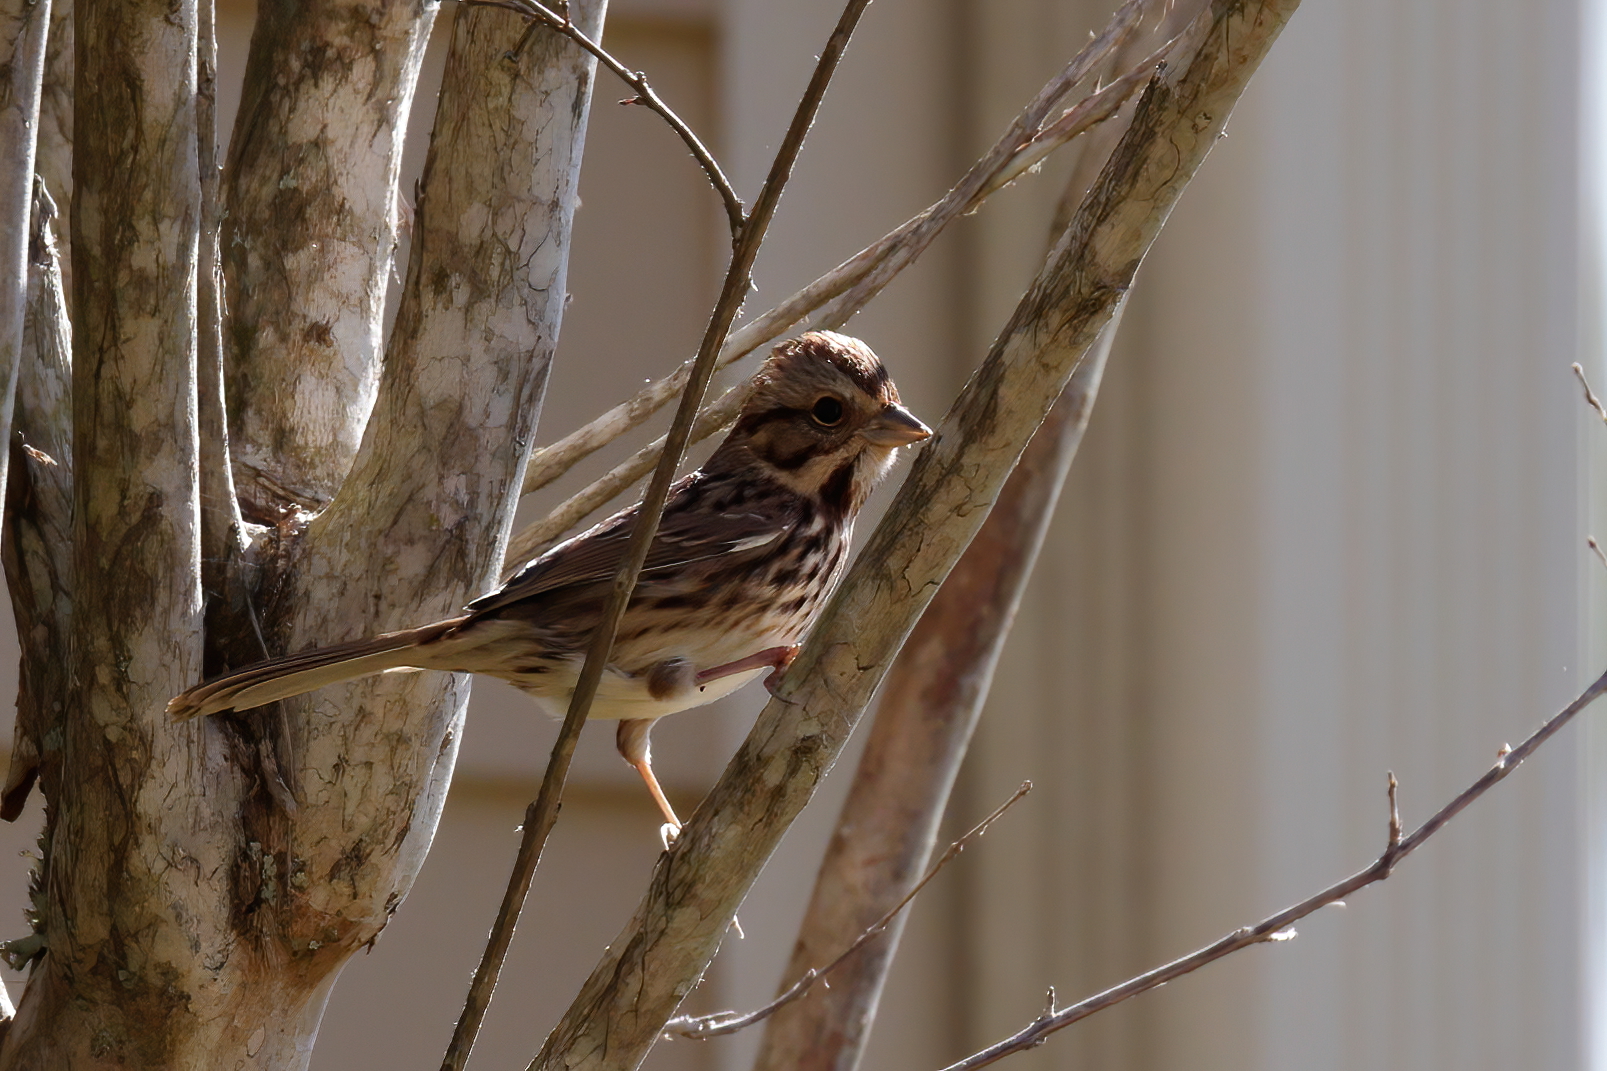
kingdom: Animalia
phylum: Chordata
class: Aves
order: Passeriformes
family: Passerellidae
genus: Melospiza
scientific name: Melospiza melodia
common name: Song sparrow
